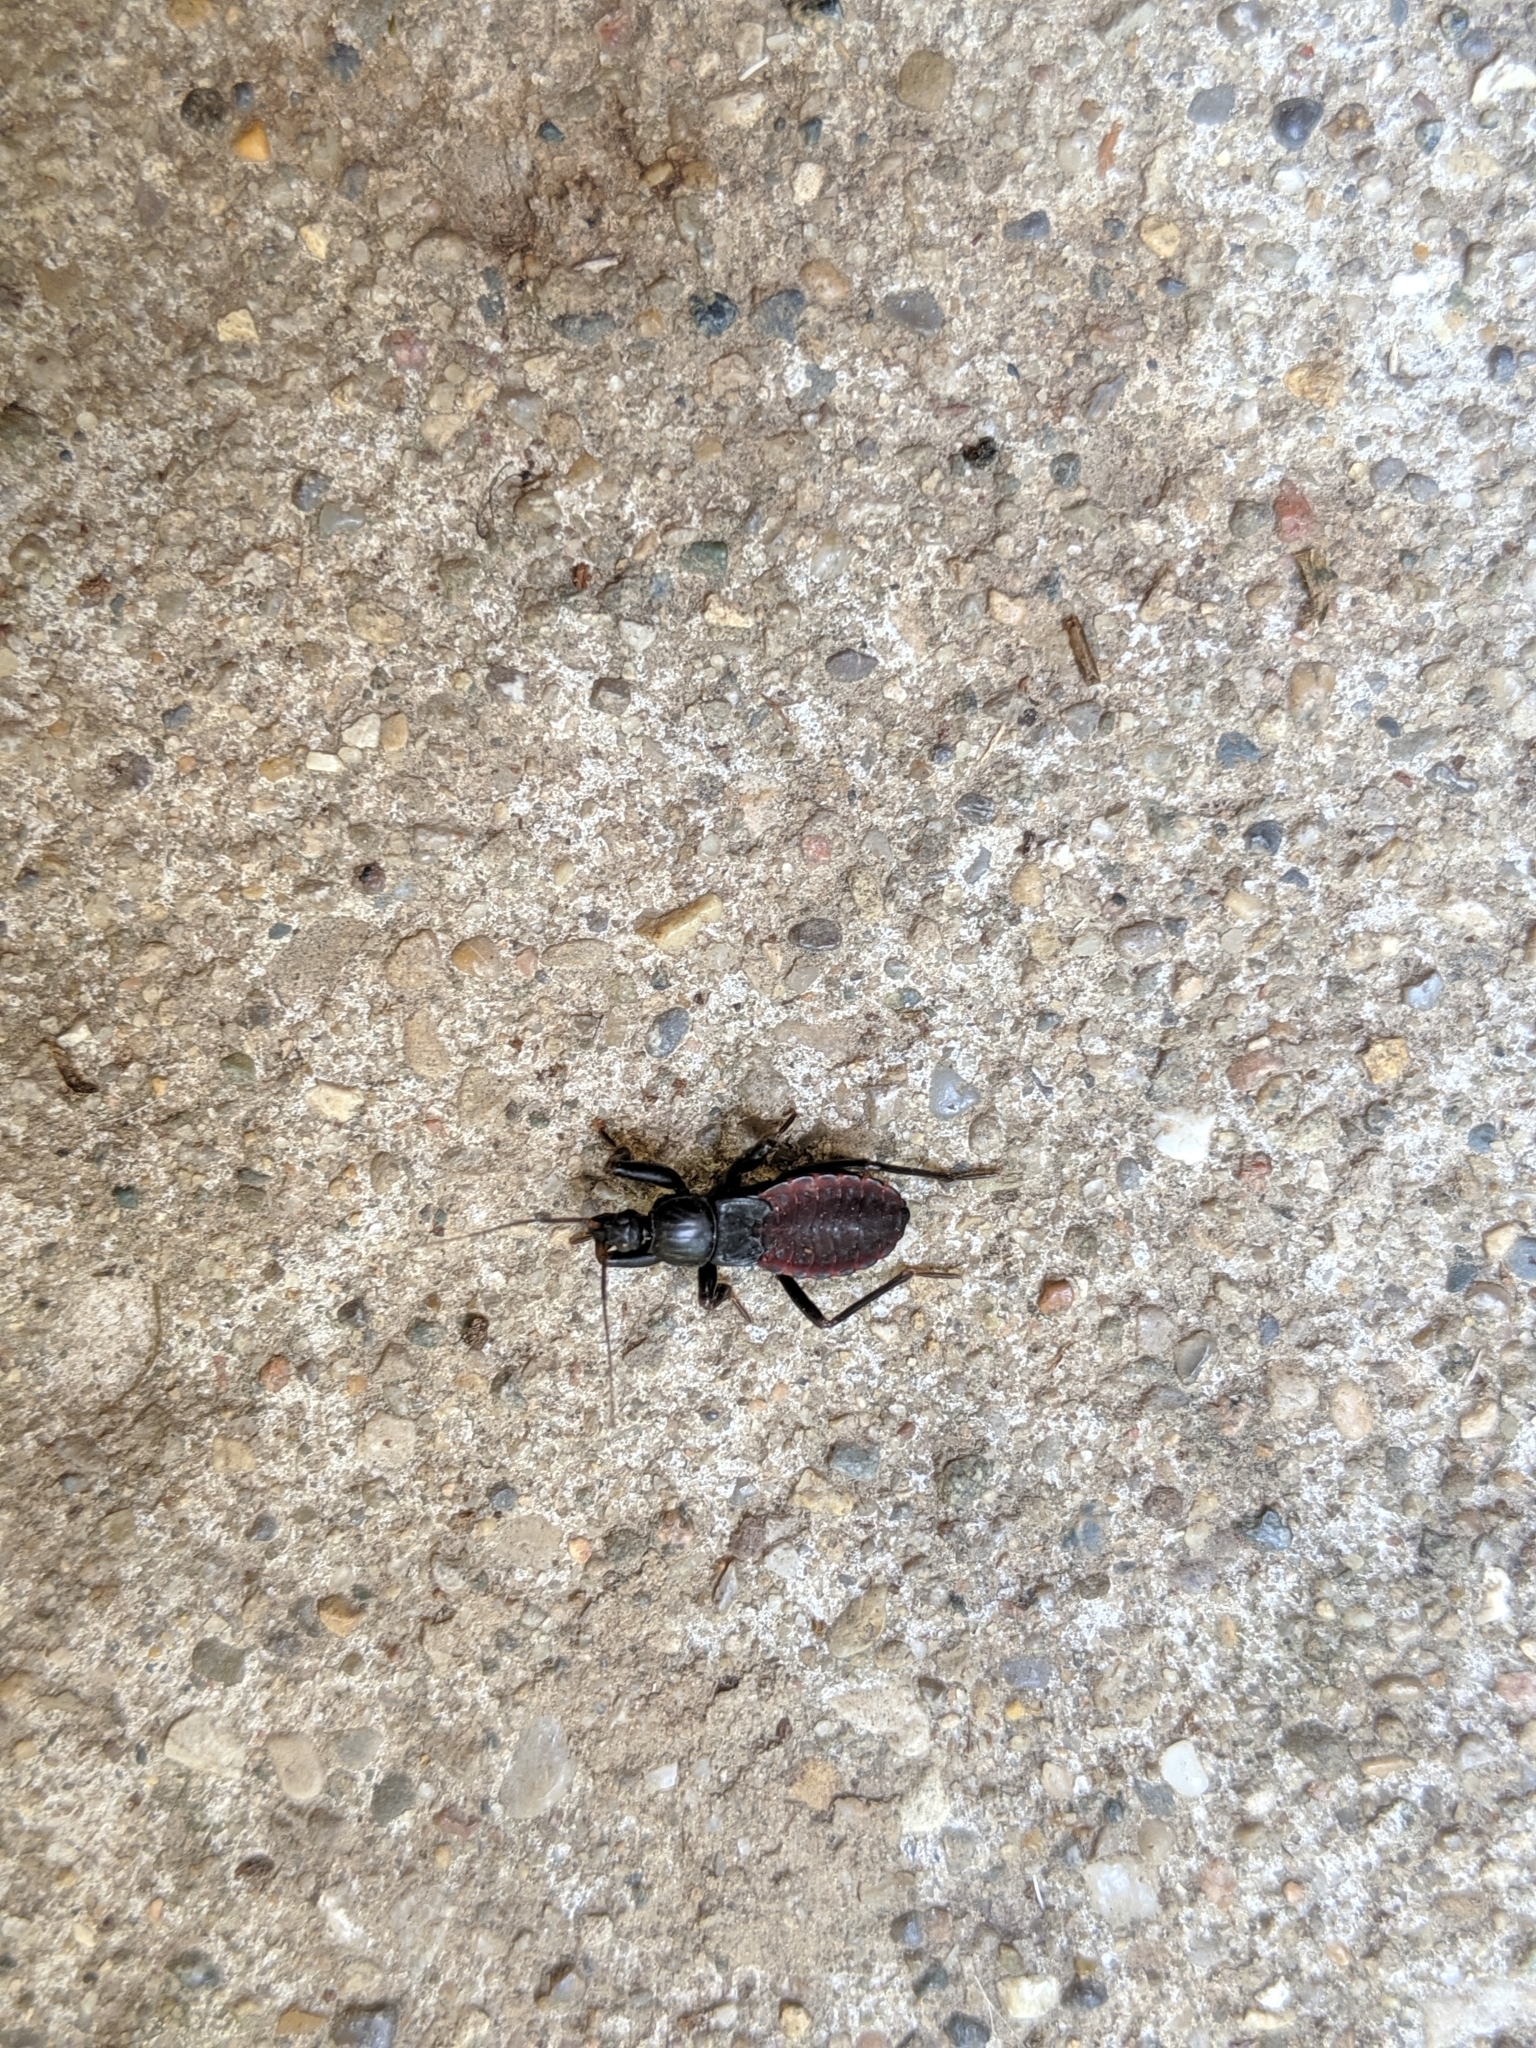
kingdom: Animalia
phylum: Arthropoda
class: Insecta
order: Hemiptera
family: Reduviidae
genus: Melanolestes
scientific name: Melanolestes picipes
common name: Assassin bug
